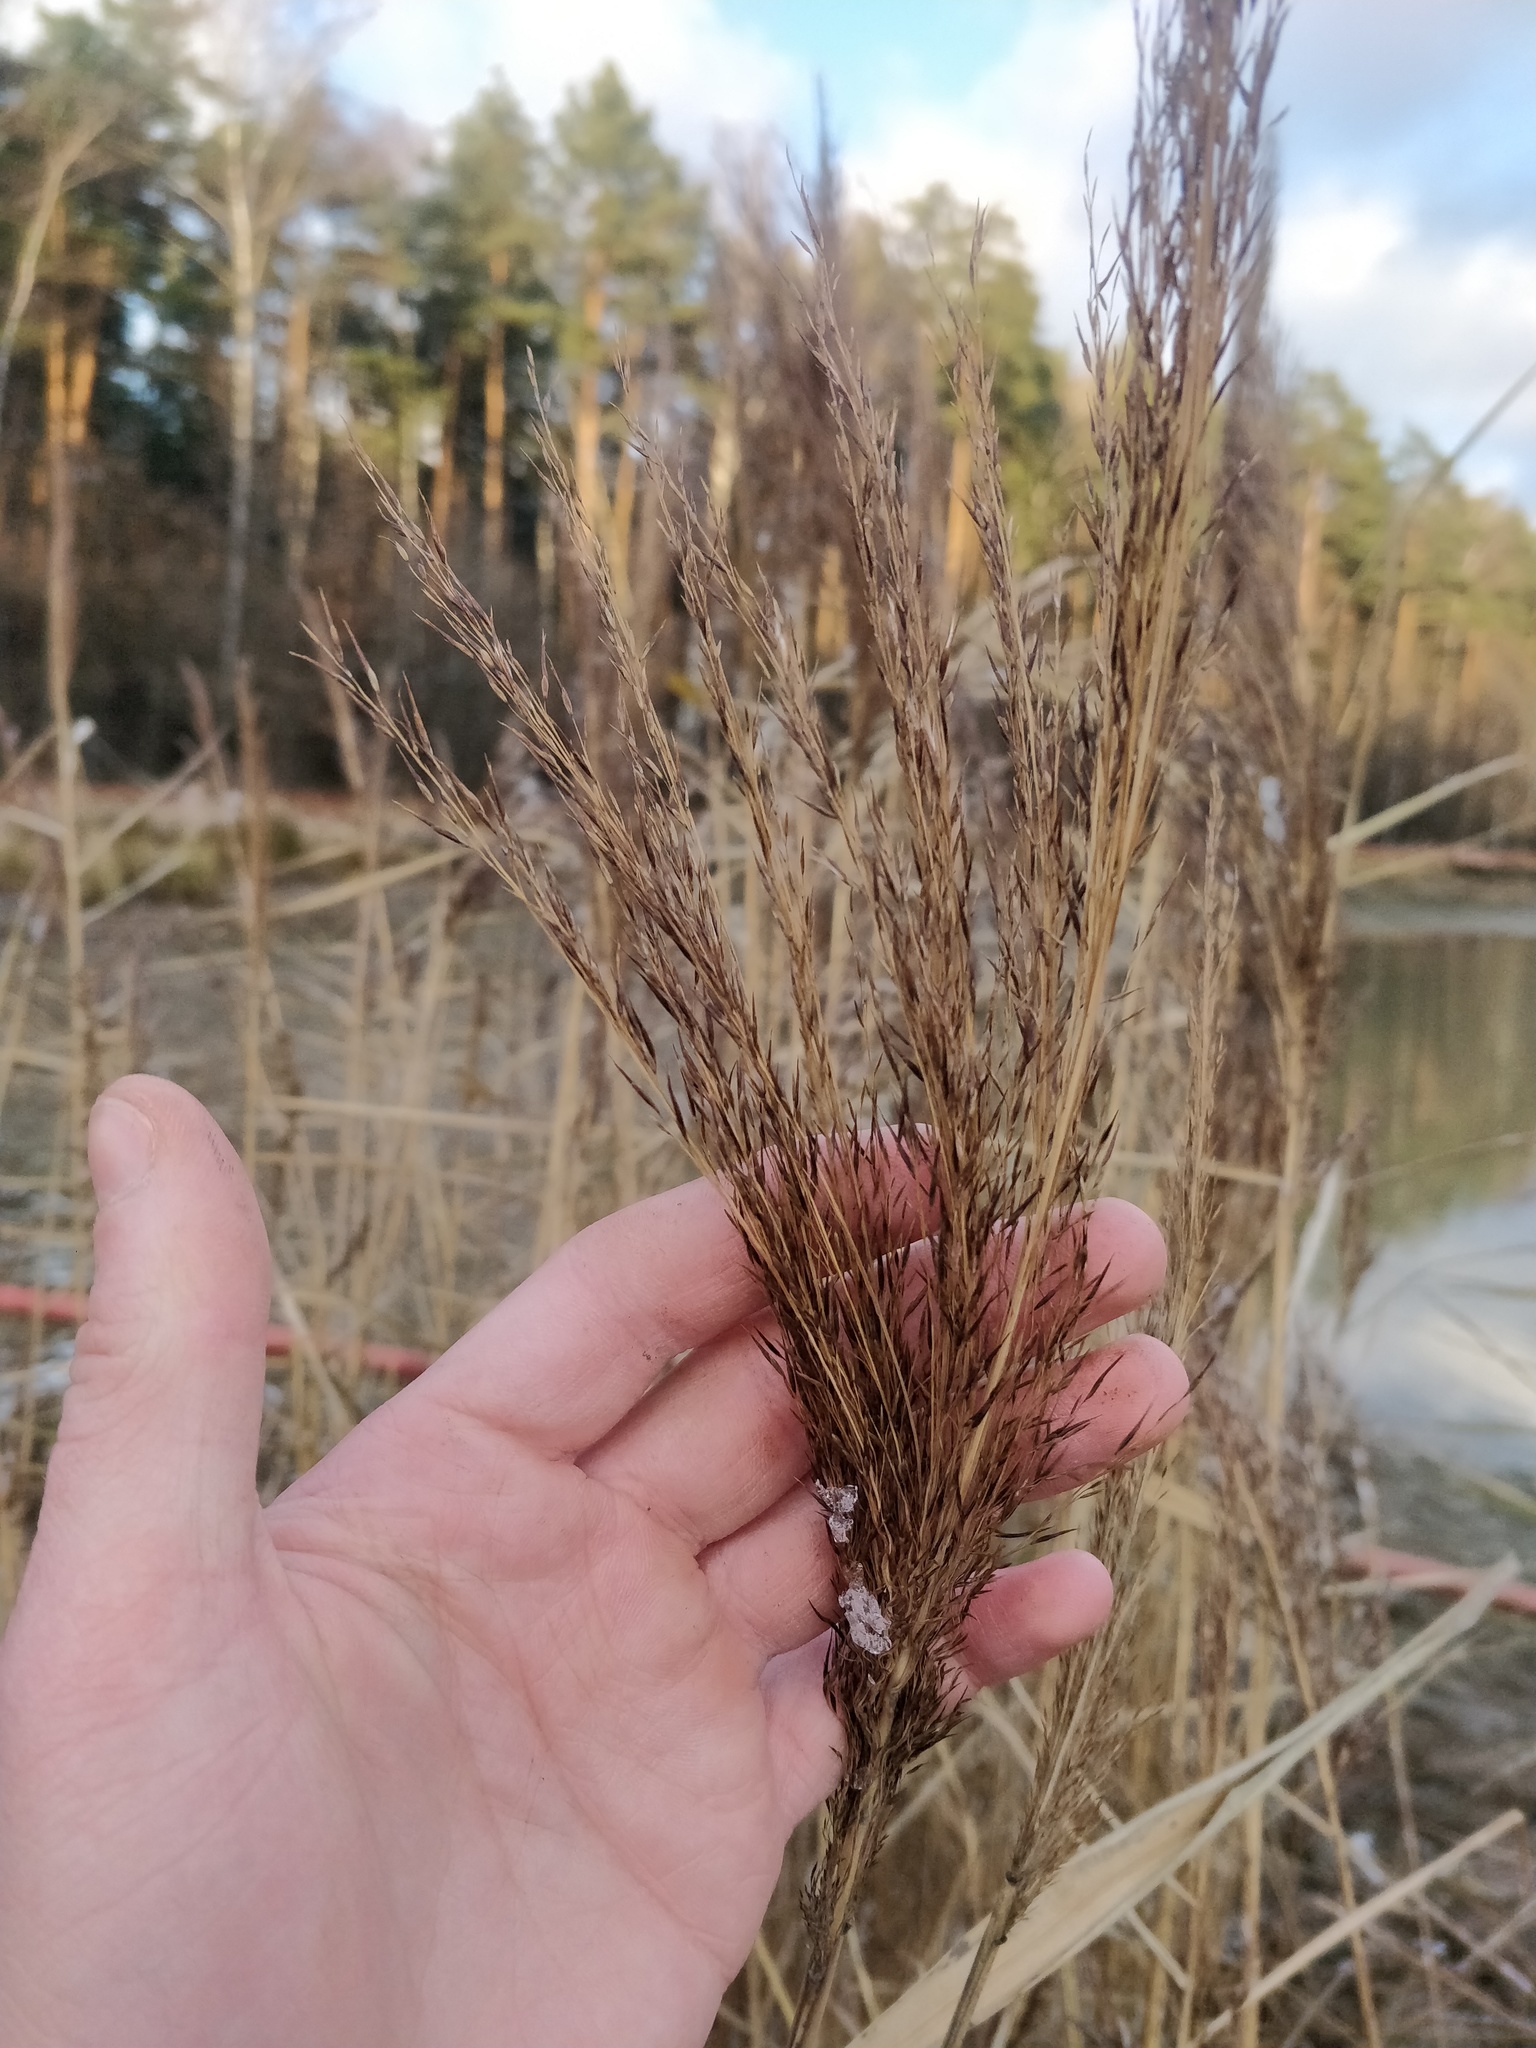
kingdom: Plantae
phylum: Tracheophyta
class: Liliopsida
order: Poales
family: Poaceae
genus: Phragmites
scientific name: Phragmites australis
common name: Common reed
